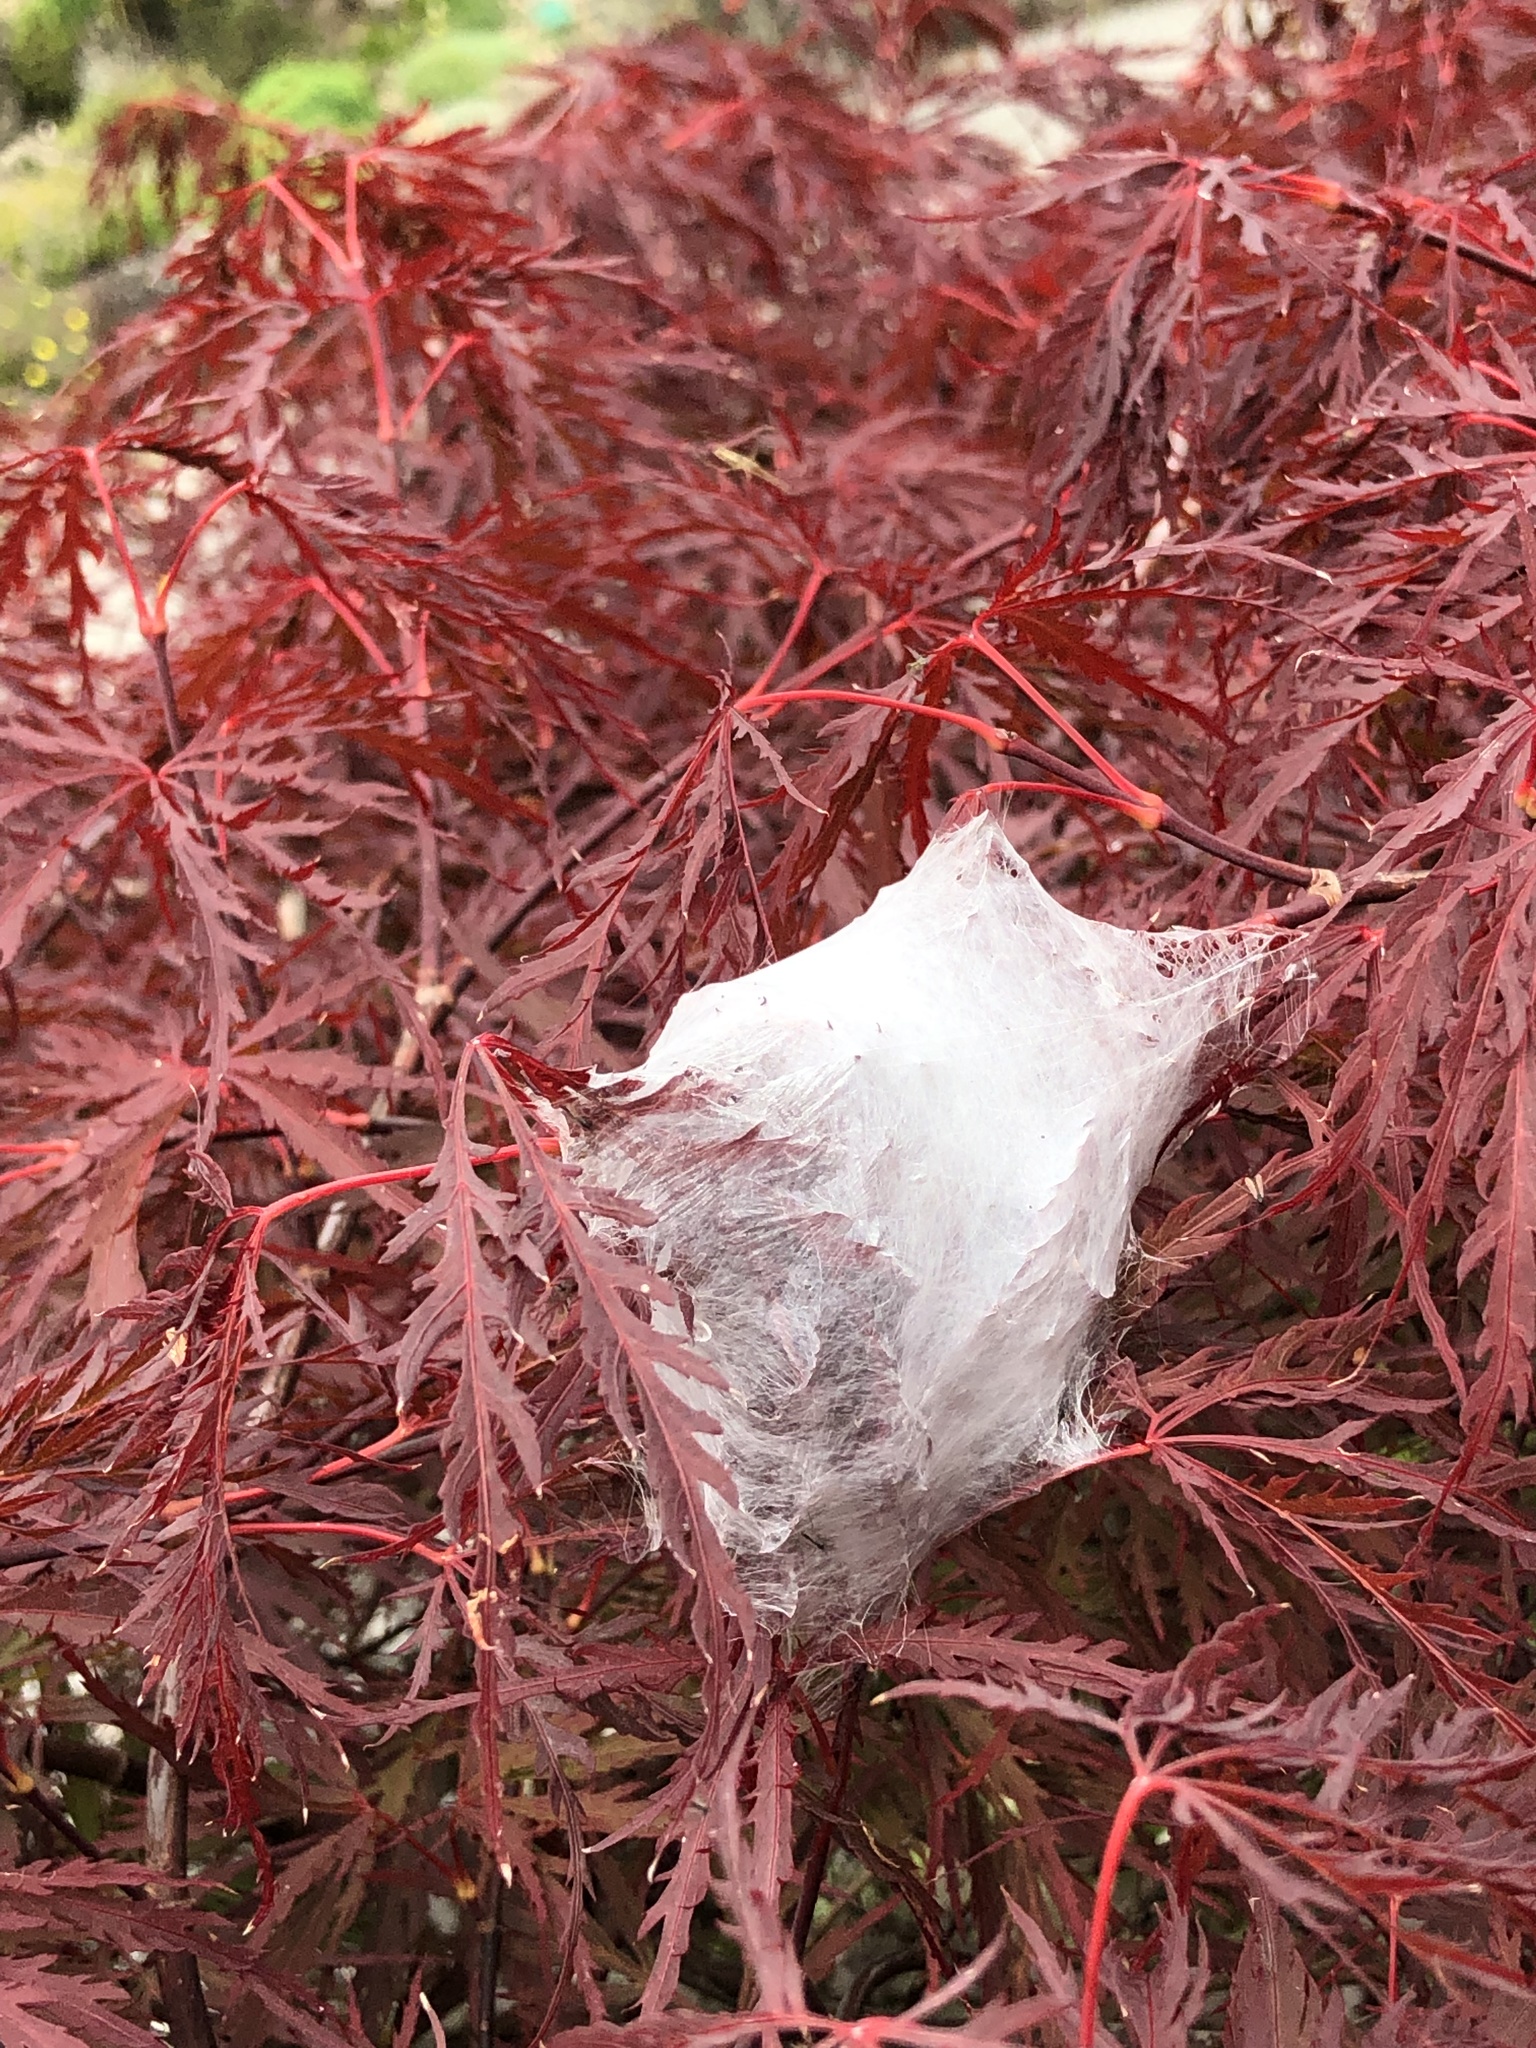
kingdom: Animalia
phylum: Arthropoda
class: Arachnida
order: Araneae
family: Pisauridae
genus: Dolomedes
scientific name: Dolomedes minor
